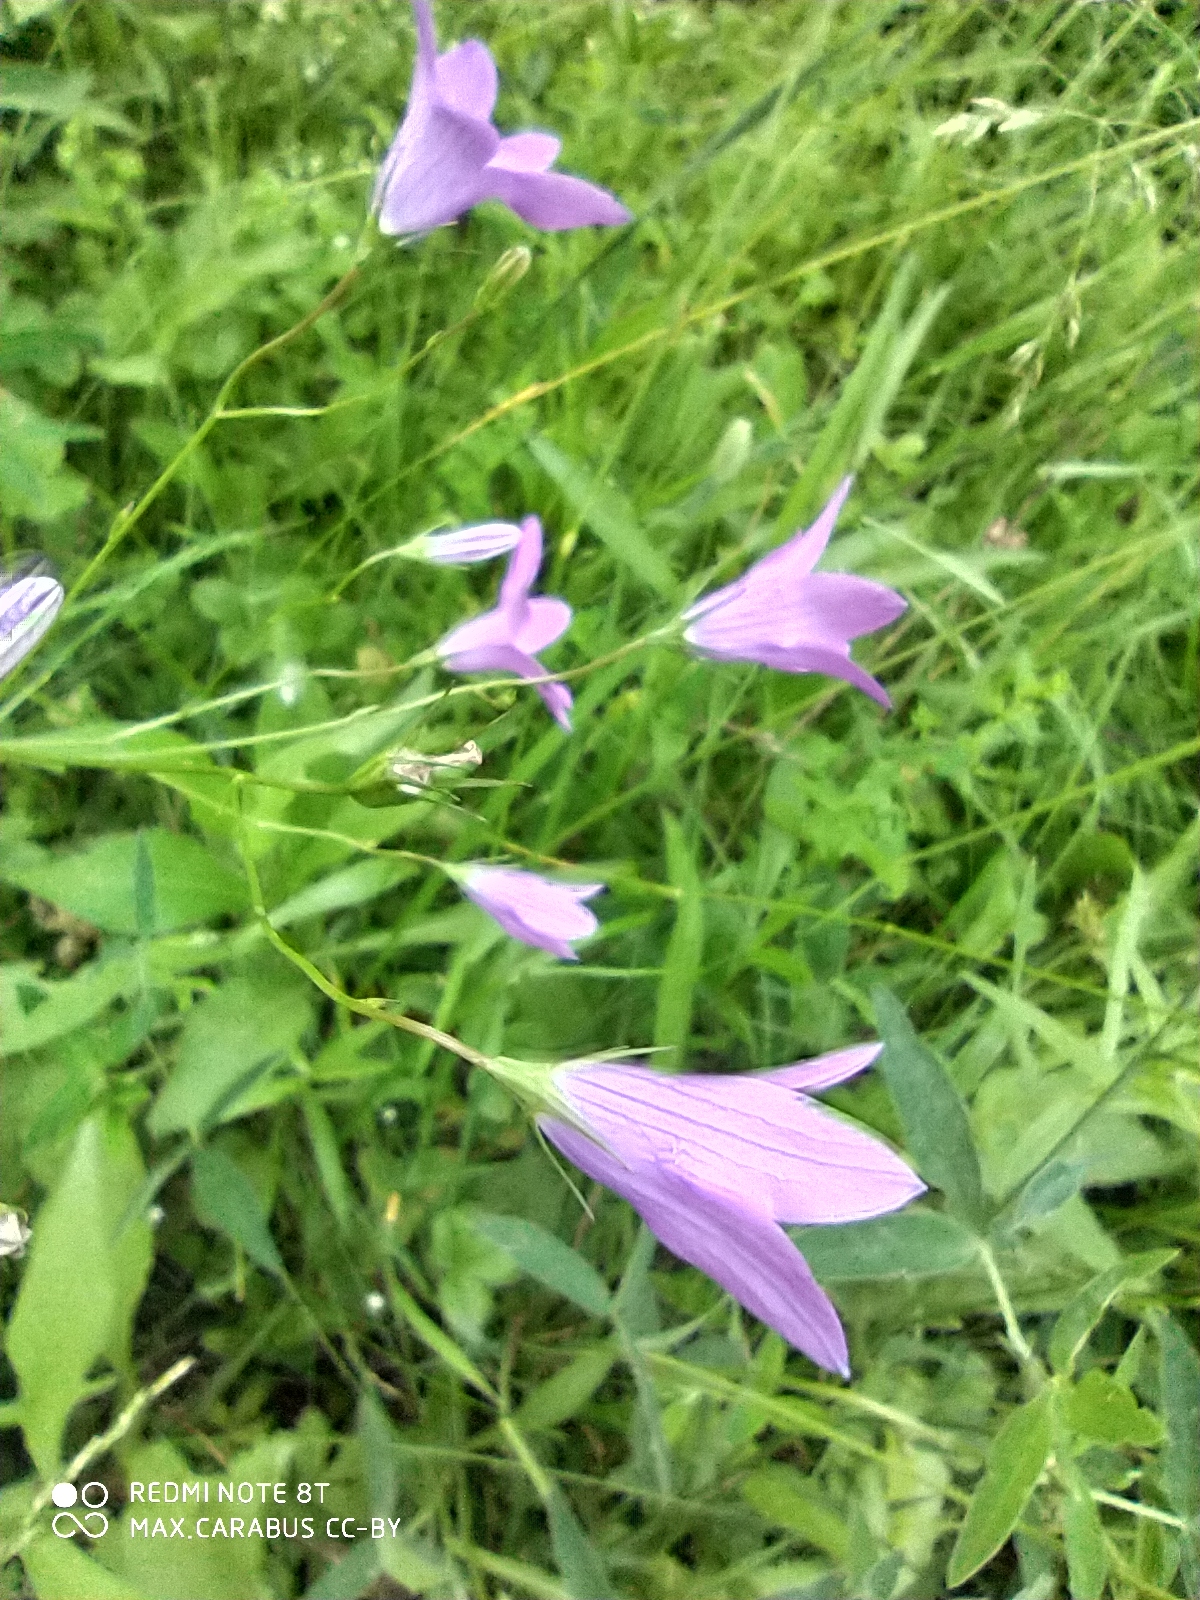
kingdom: Plantae
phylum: Tracheophyta
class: Magnoliopsida
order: Asterales
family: Campanulaceae
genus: Campanula
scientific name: Campanula patula
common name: Spreading bellflower
